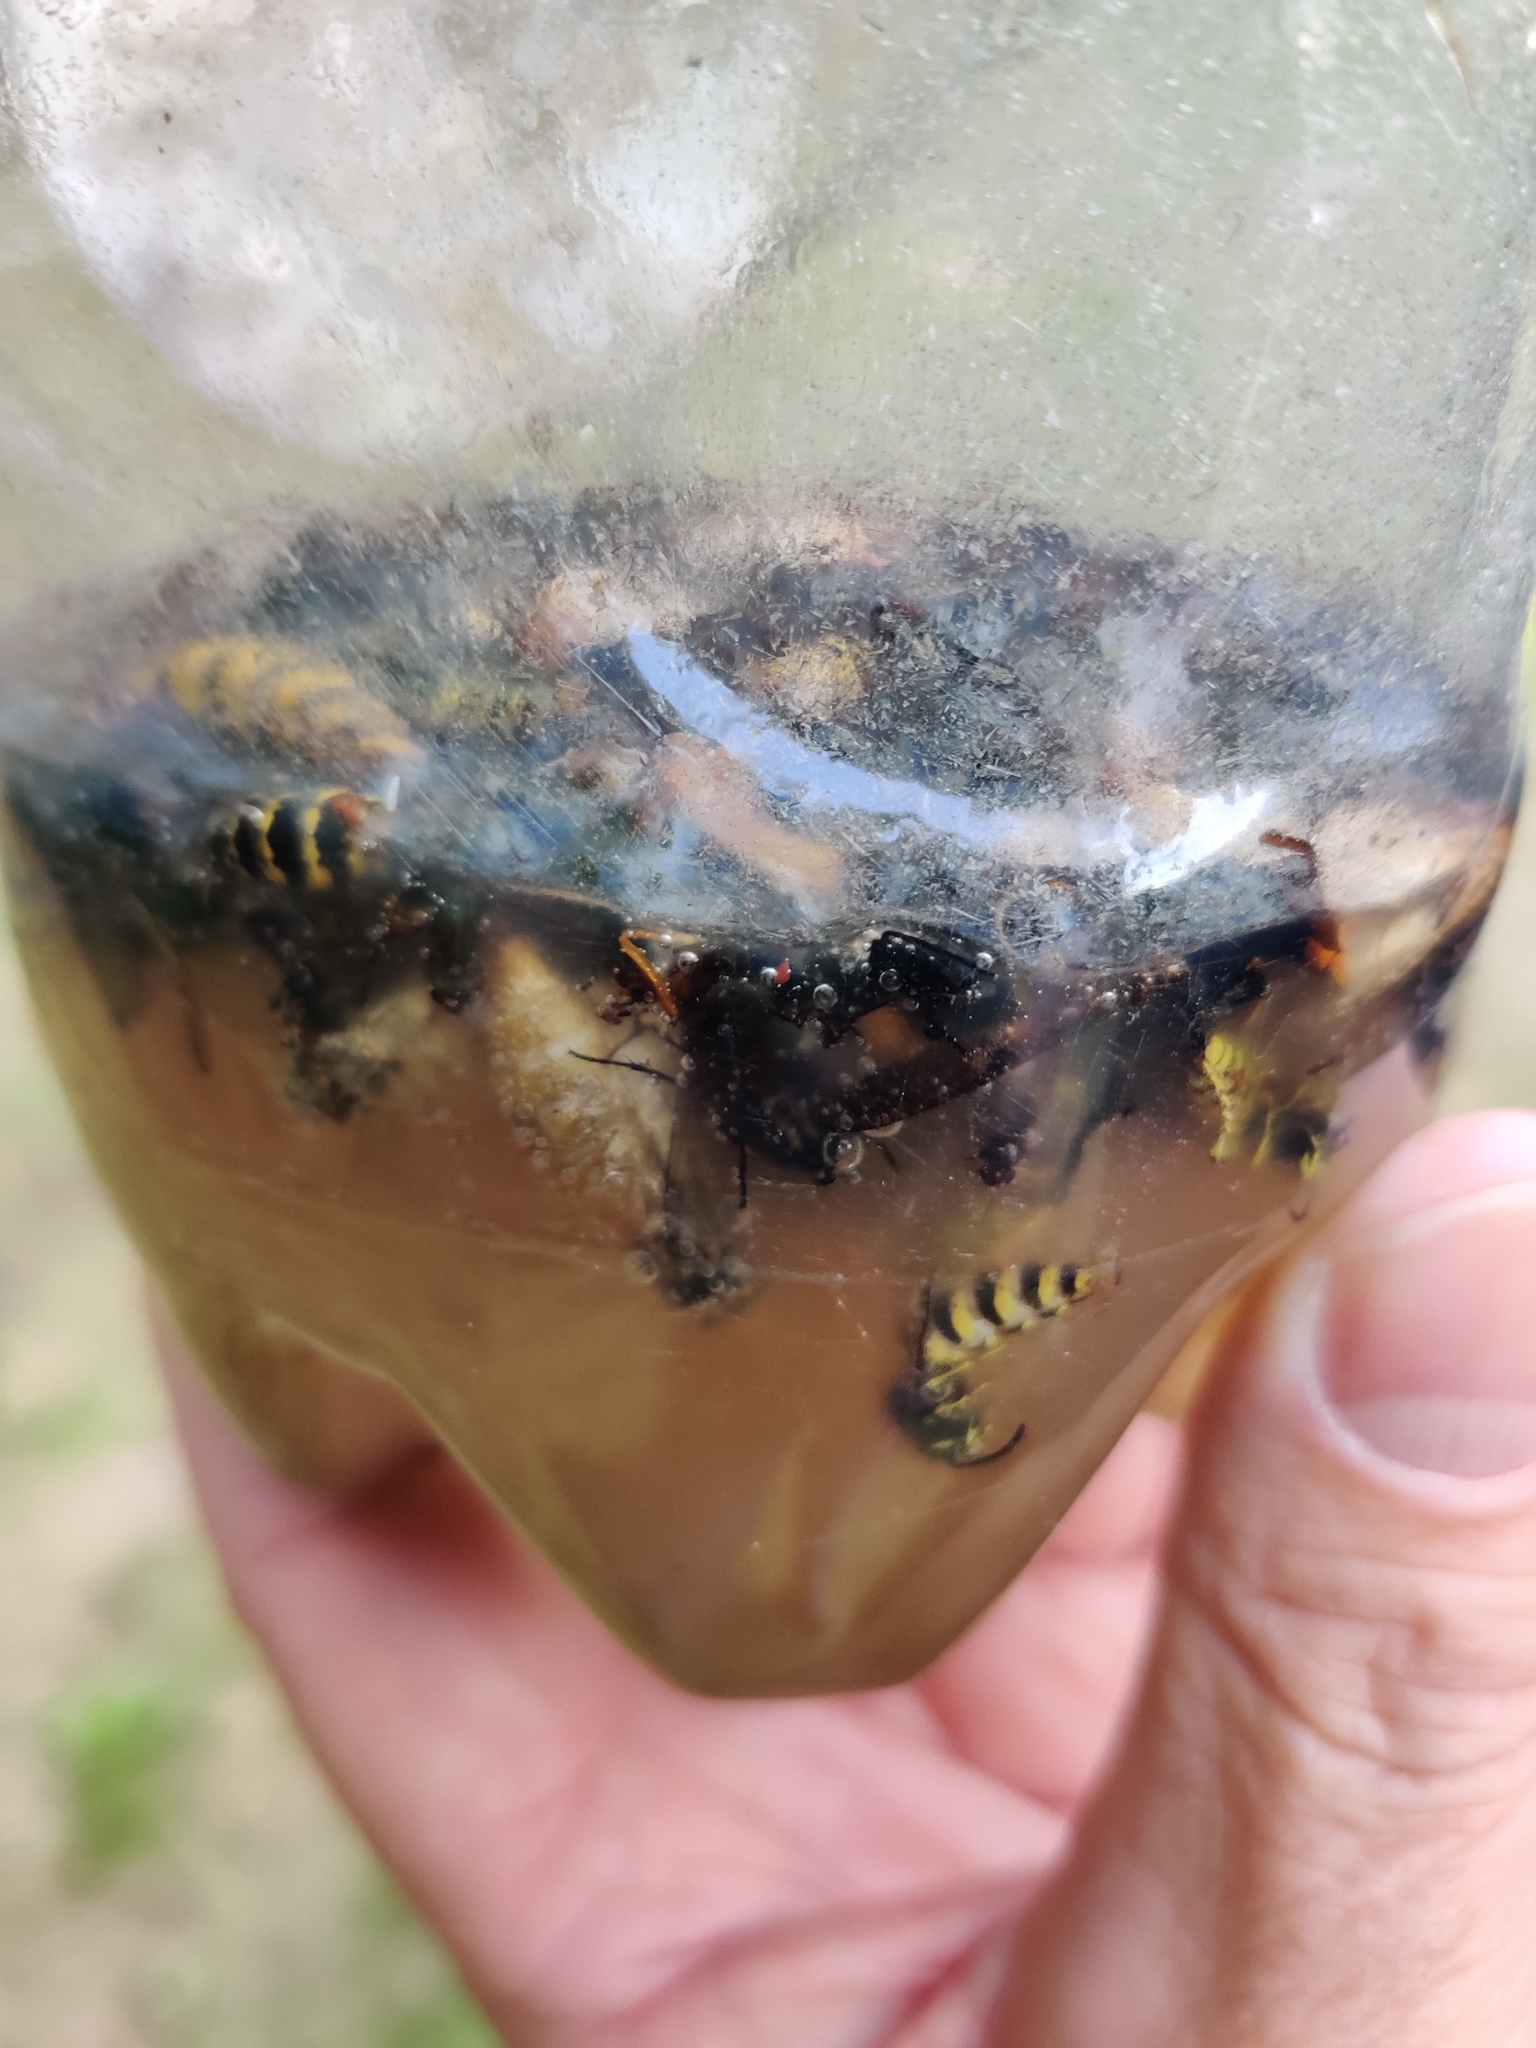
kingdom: Animalia
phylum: Arthropoda
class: Insecta
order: Hymenoptera
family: Vespidae
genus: Vespa
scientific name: Vespa velutina
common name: Asian hornet
